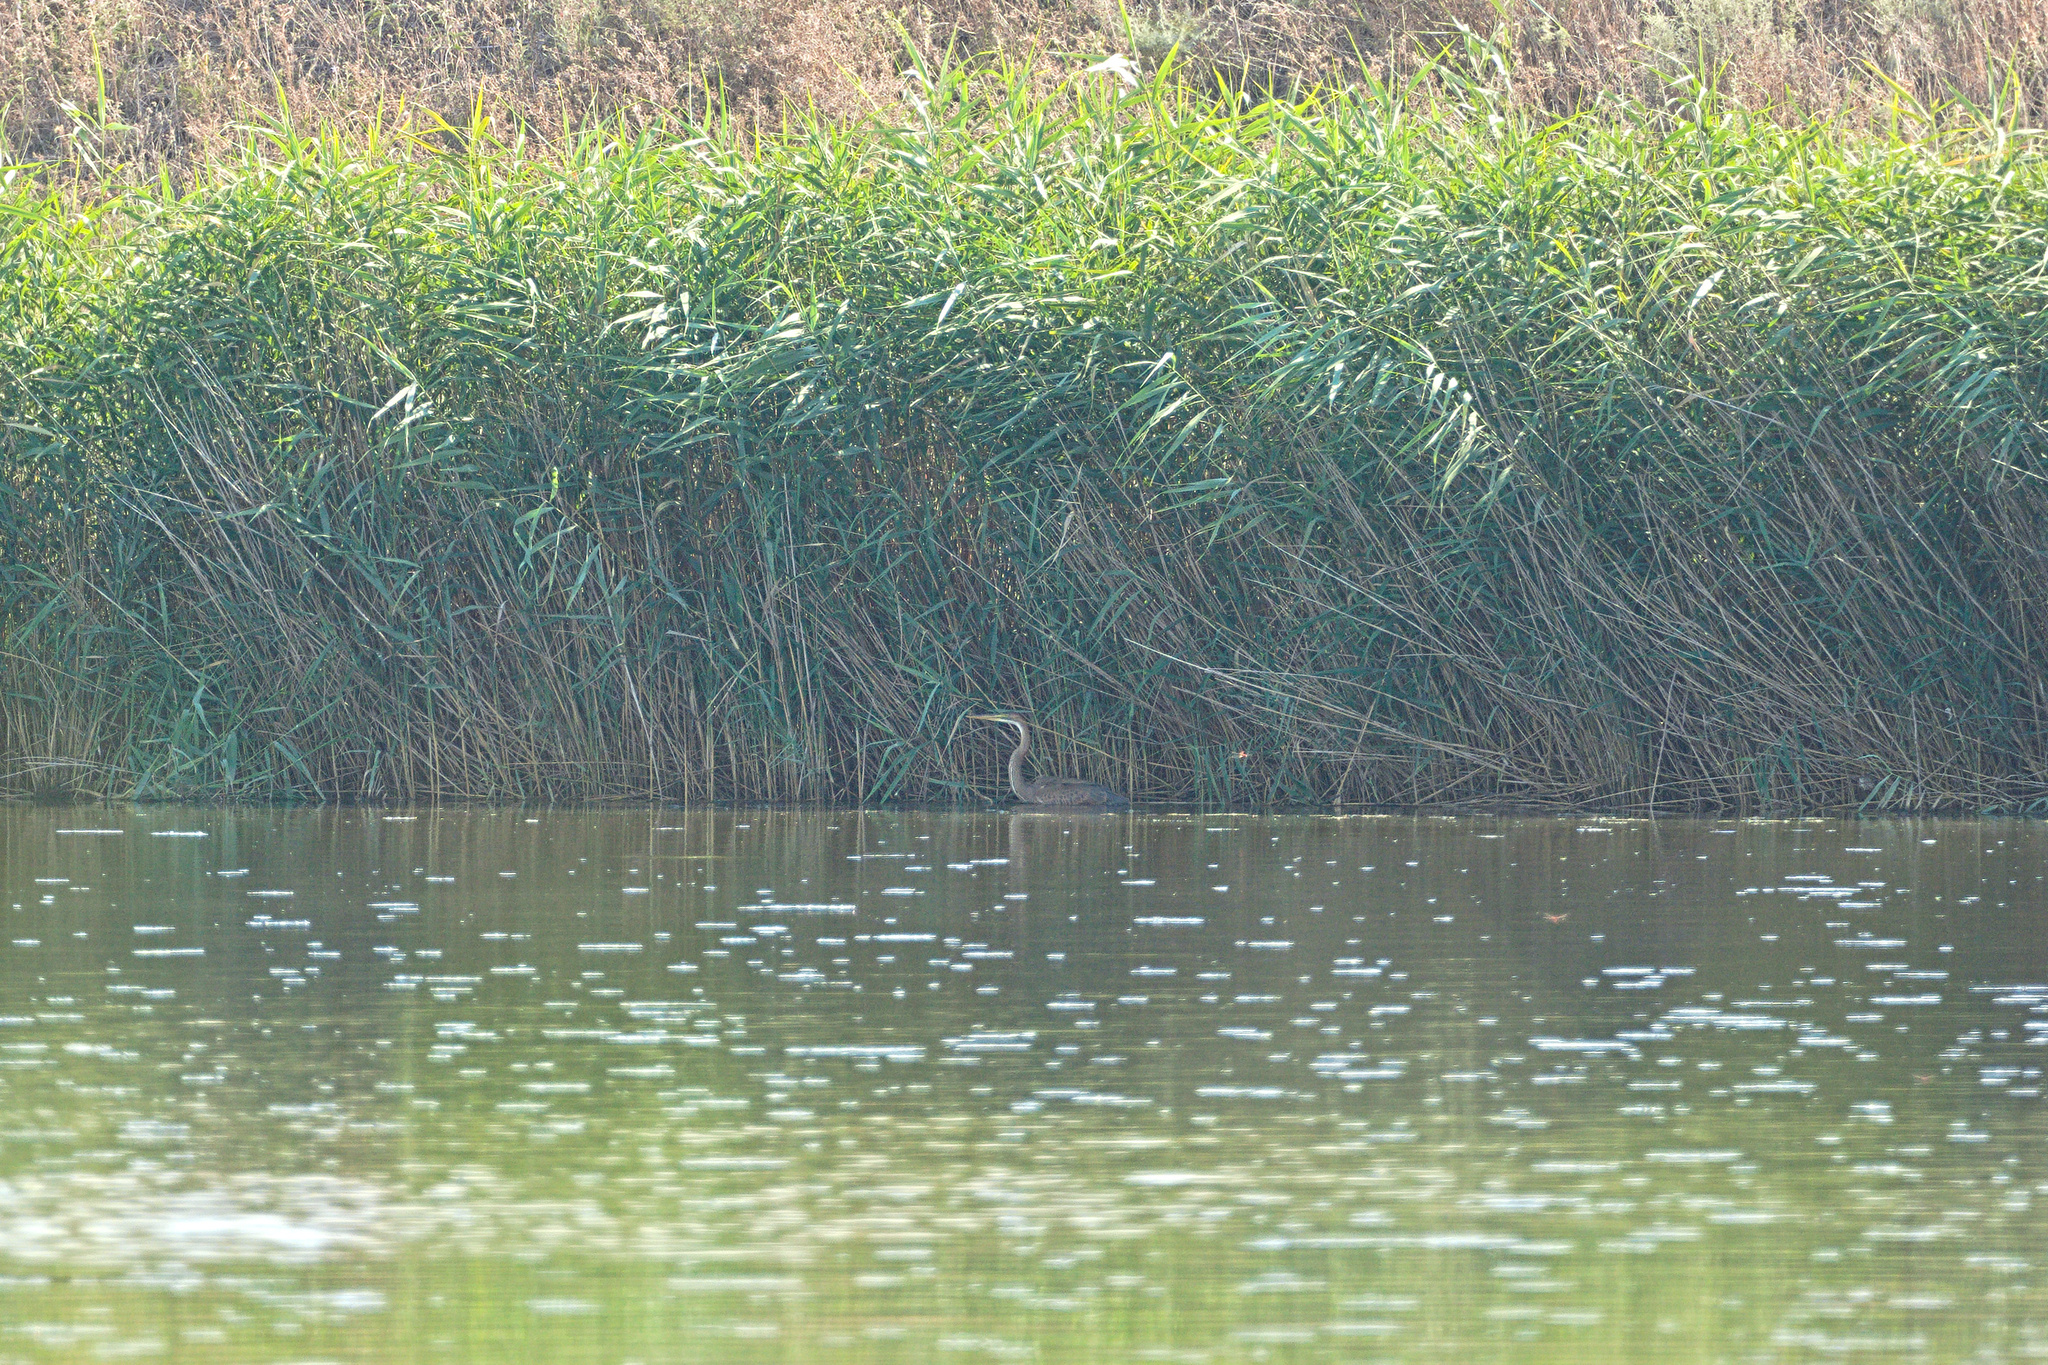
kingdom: Animalia
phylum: Chordata
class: Aves
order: Pelecaniformes
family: Ardeidae
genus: Ardea
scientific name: Ardea purpurea
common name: Purple heron
